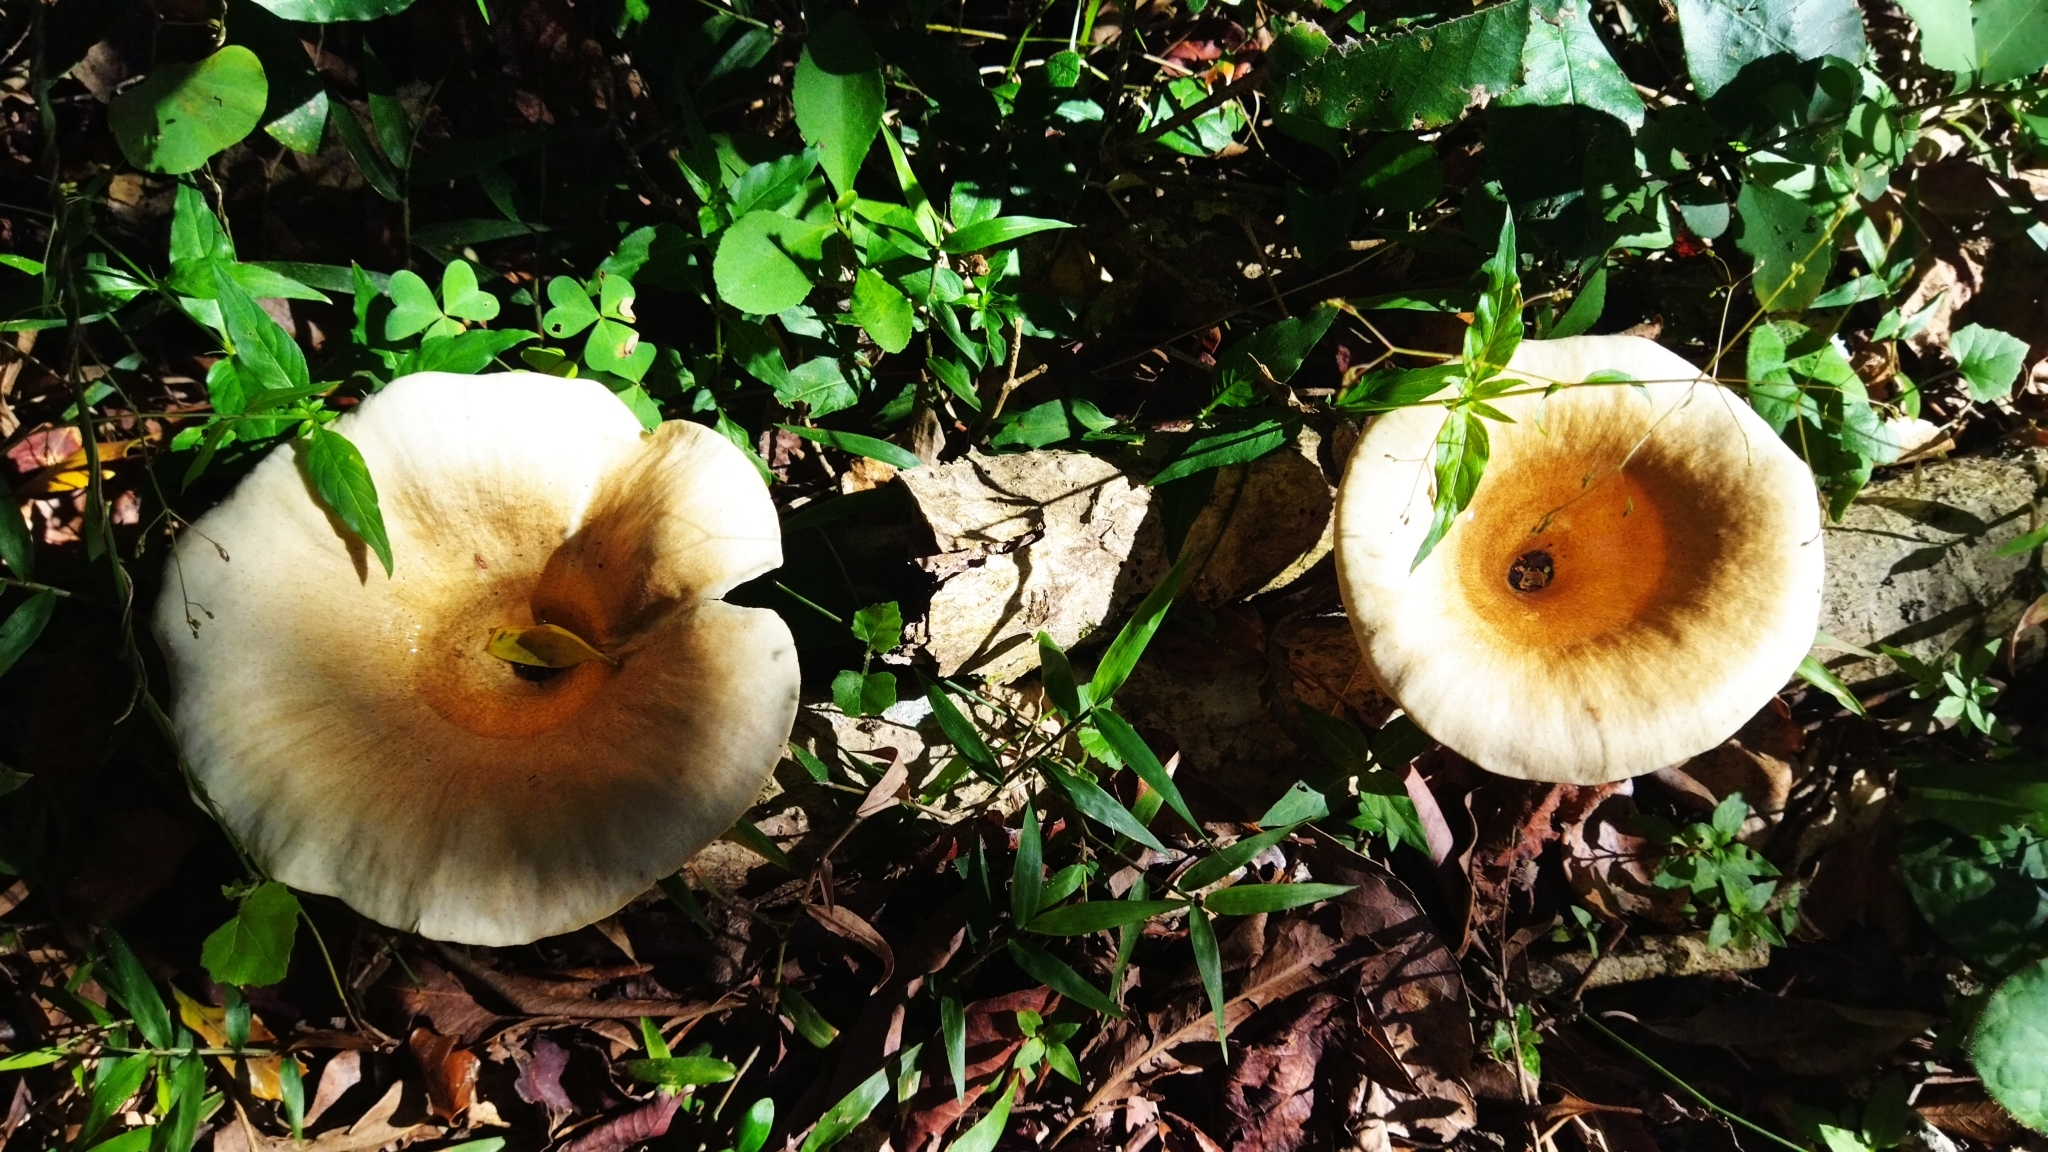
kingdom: Fungi
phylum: Basidiomycota
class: Agaricomycetes
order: Polyporales
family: Polyporaceae
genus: Lentinus
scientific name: Lentinus sajor-caju
